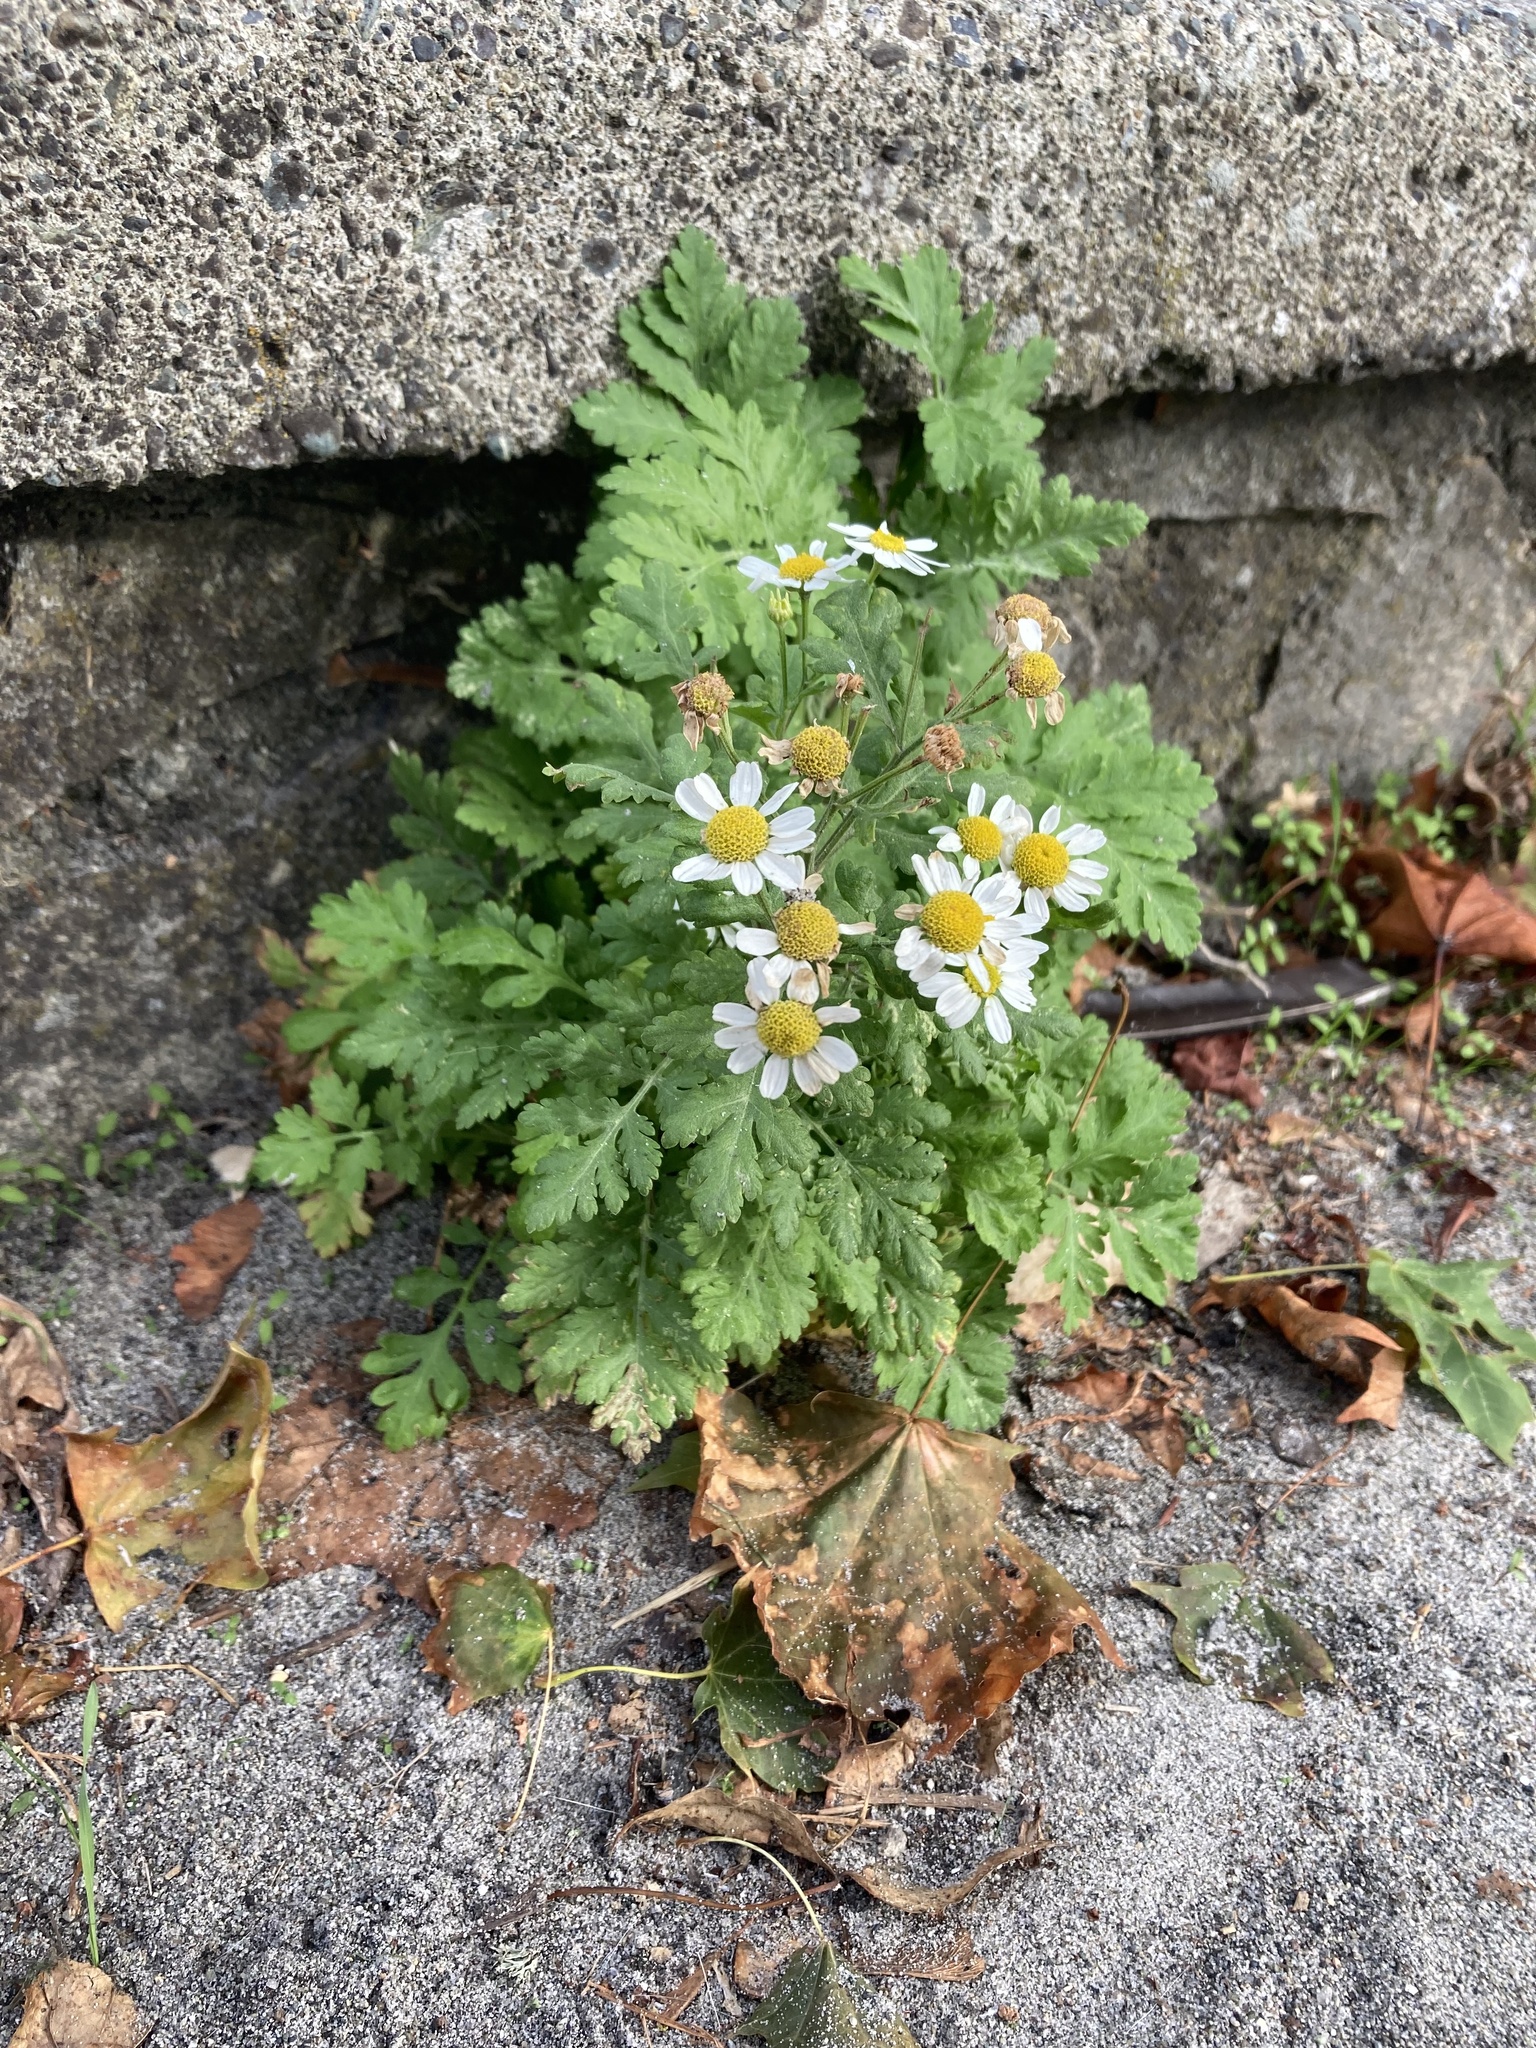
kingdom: Plantae
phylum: Tracheophyta
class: Magnoliopsida
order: Asterales
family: Asteraceae
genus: Tanacetum
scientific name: Tanacetum parthenium
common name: Feverfew
